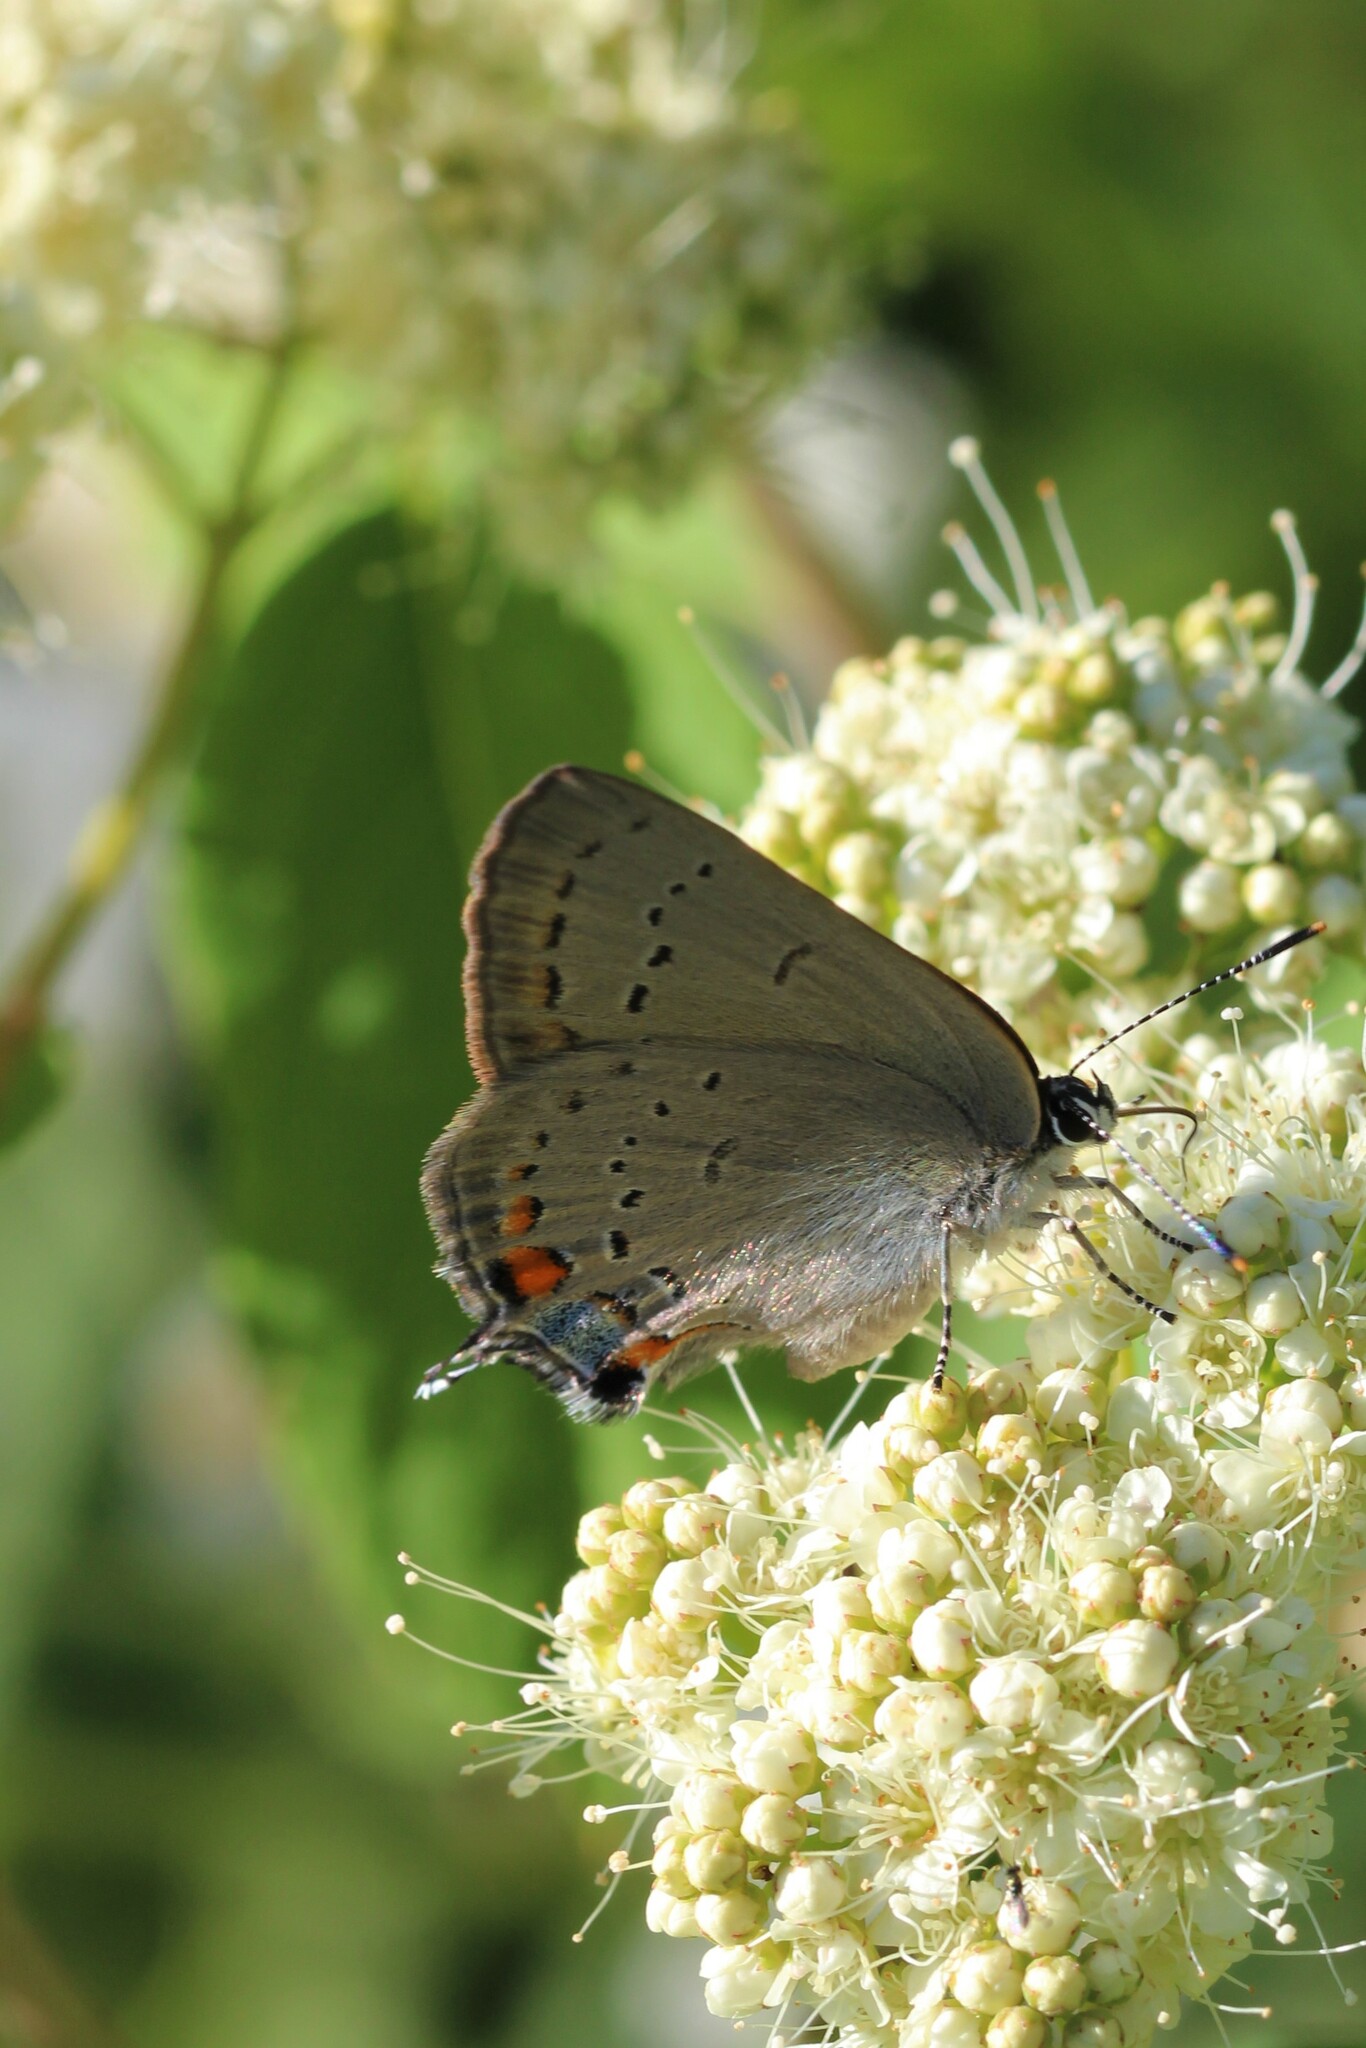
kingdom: Animalia
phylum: Arthropoda
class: Insecta
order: Lepidoptera
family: Lycaenidae
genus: Strymon
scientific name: Strymon sylvinus
